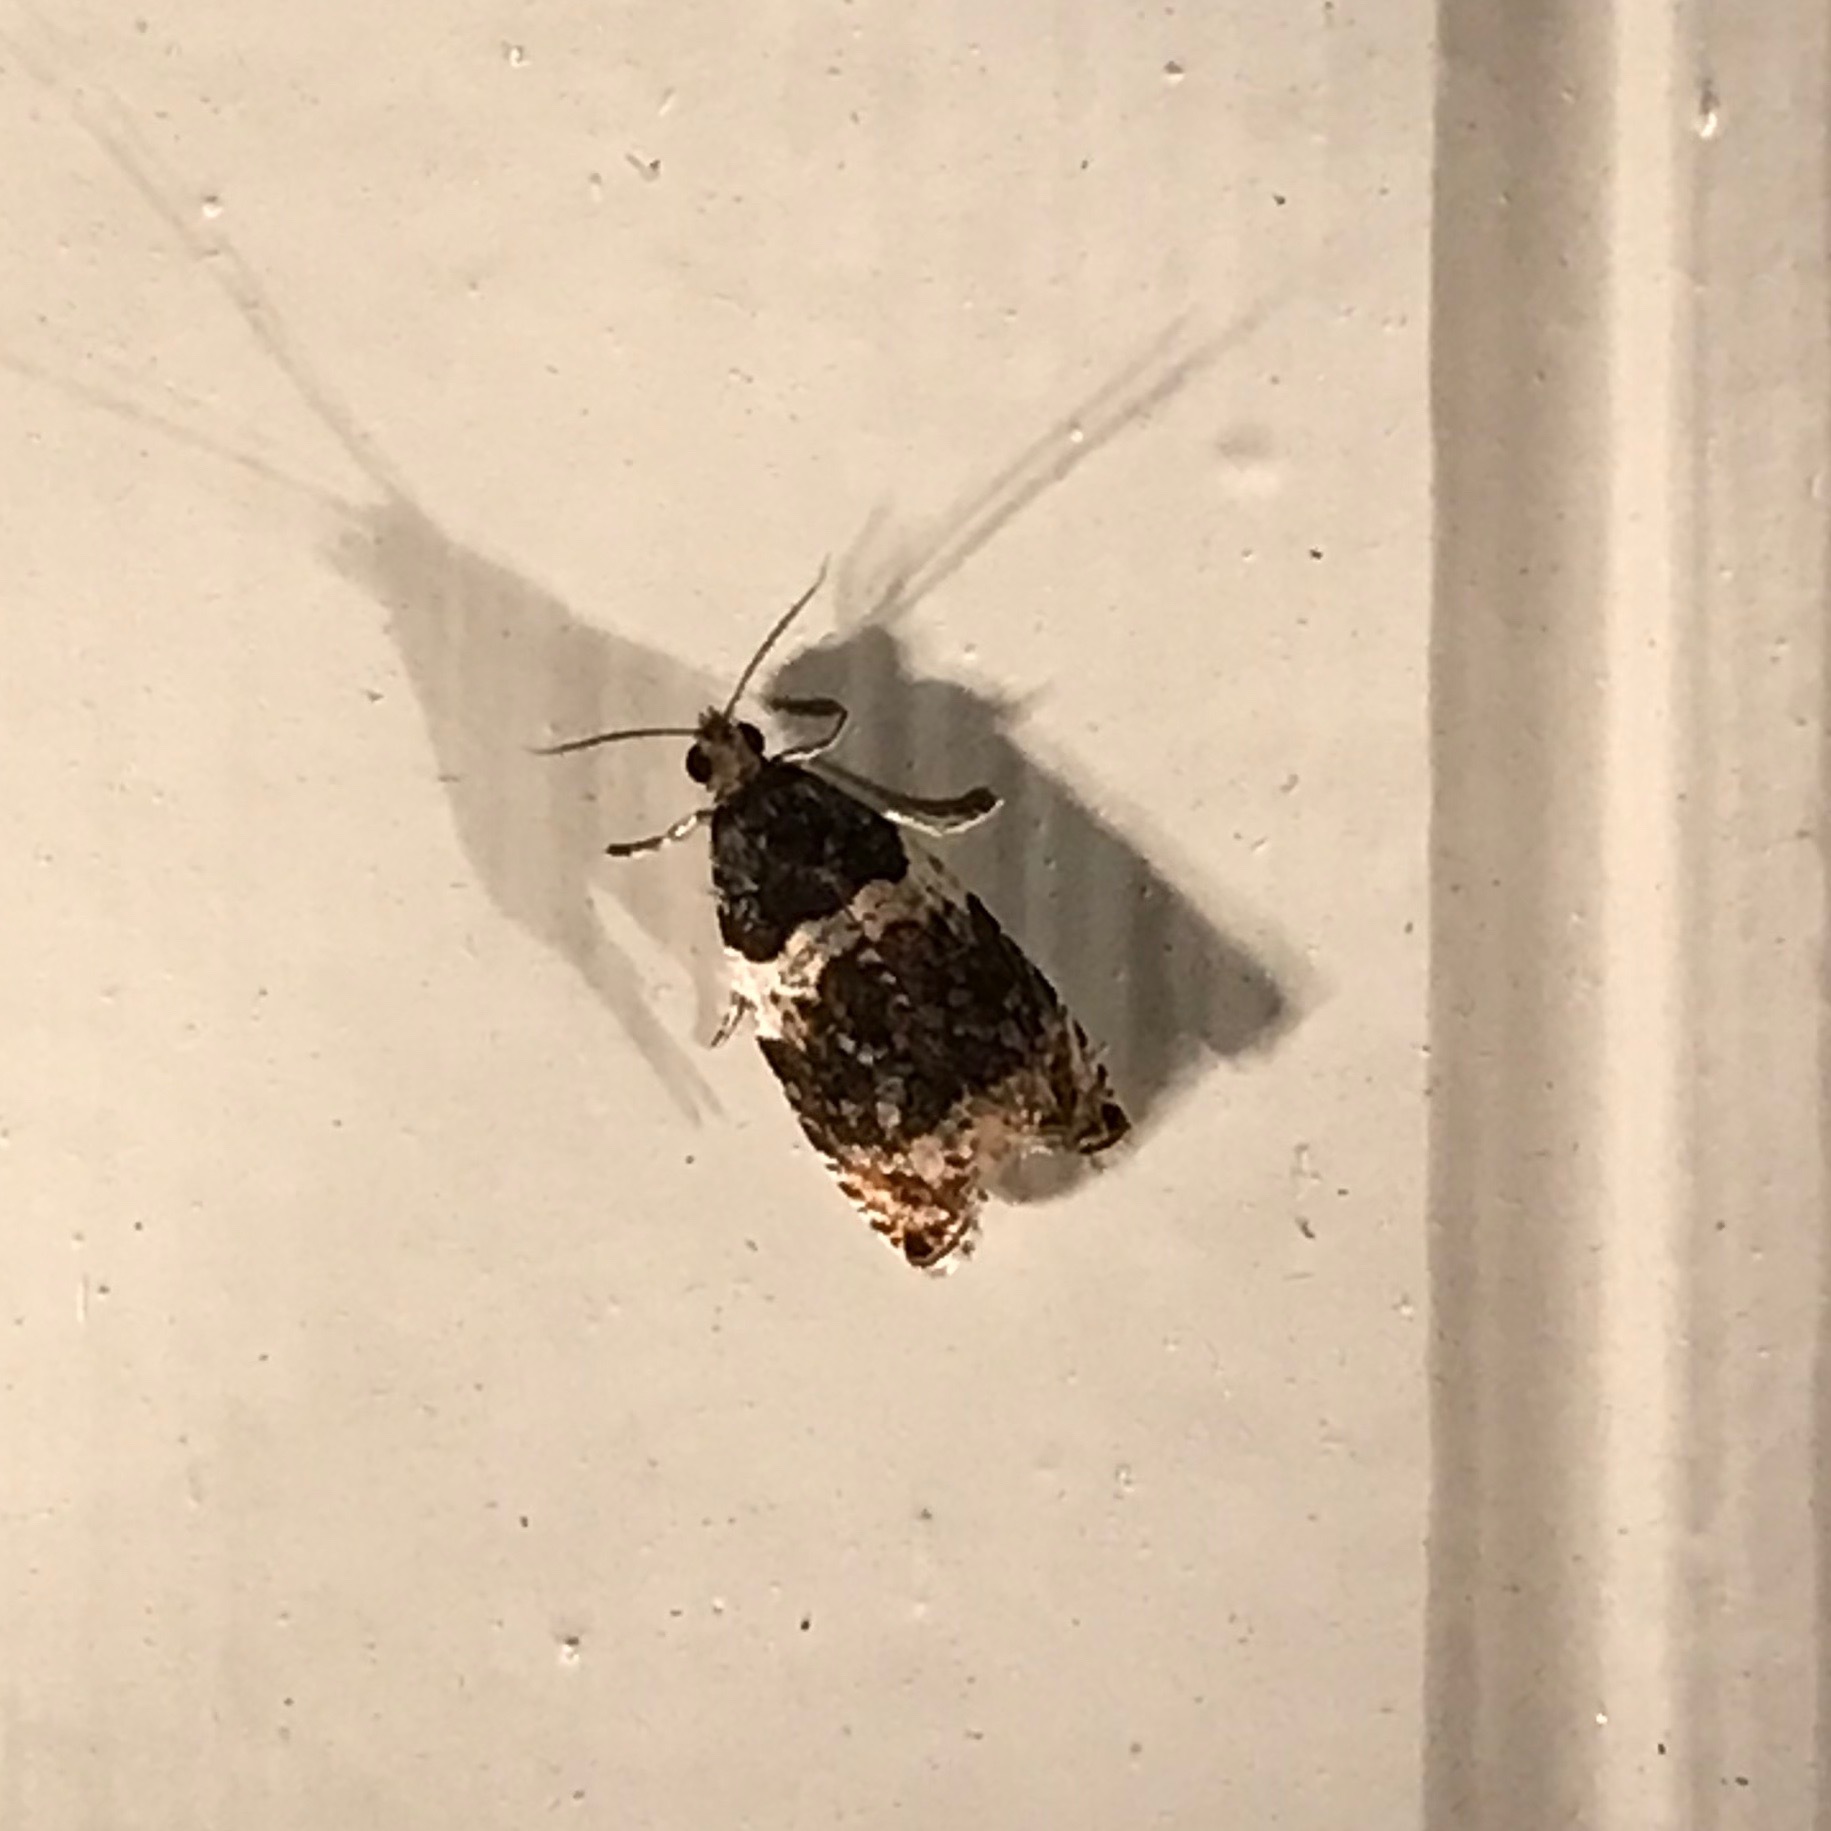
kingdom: Animalia
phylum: Arthropoda
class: Insecta
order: Lepidoptera
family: Tortricidae
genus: Olethreutes
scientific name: Olethreutes fasciatana
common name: Banded olethreutes moth
